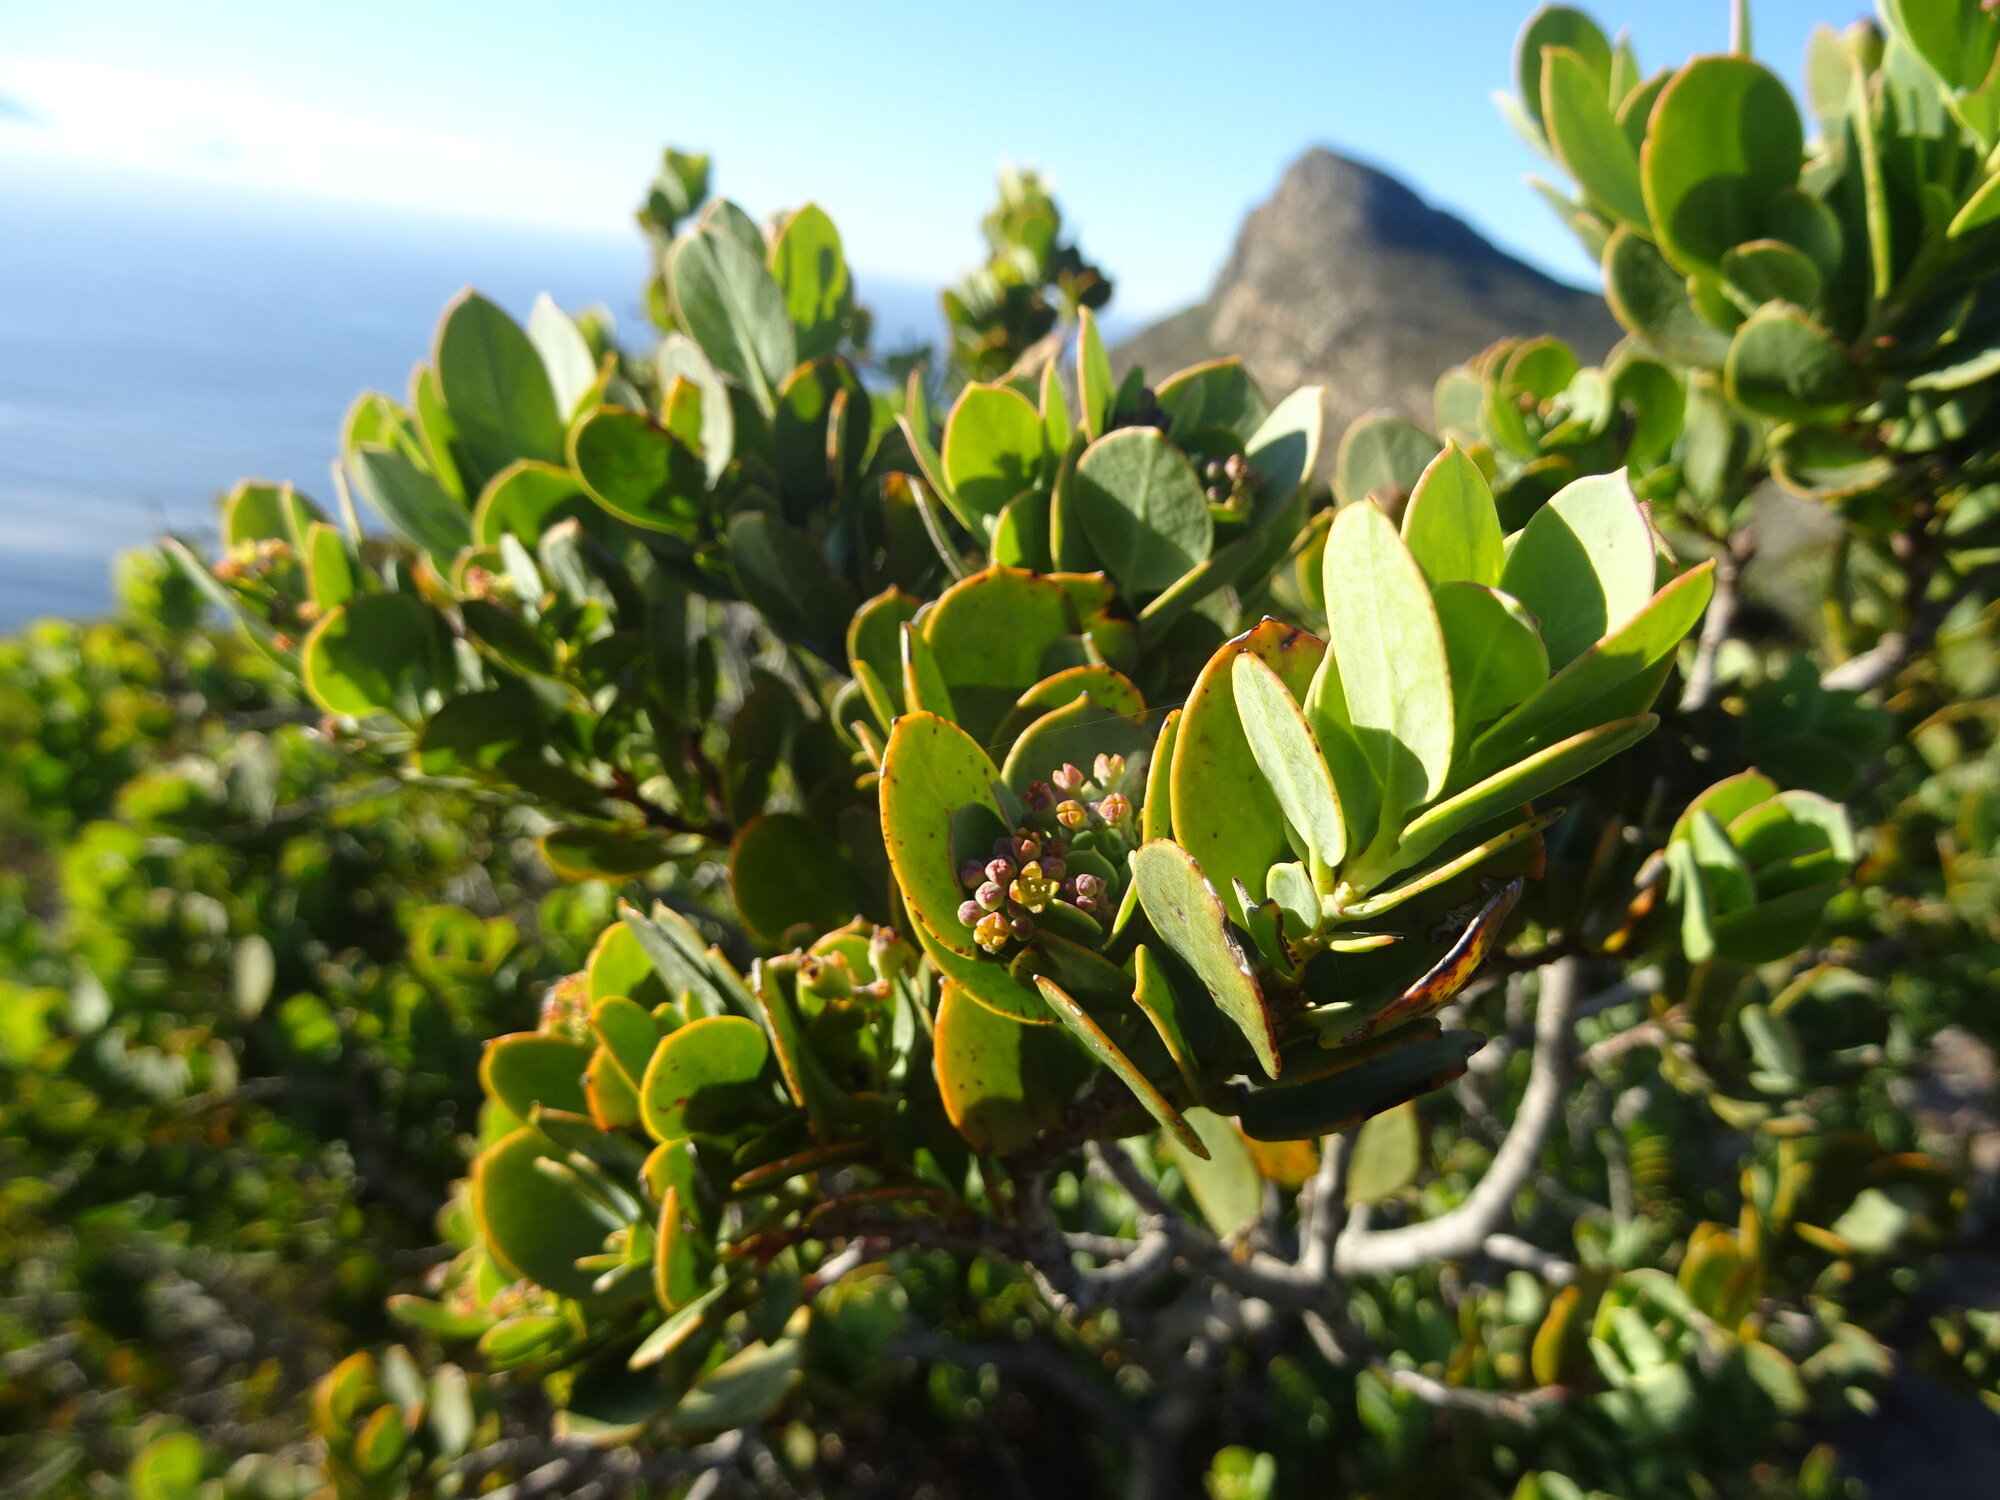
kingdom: Plantae
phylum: Tracheophyta
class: Magnoliopsida
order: Santalales
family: Santalaceae
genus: Osyris
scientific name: Osyris compressa
